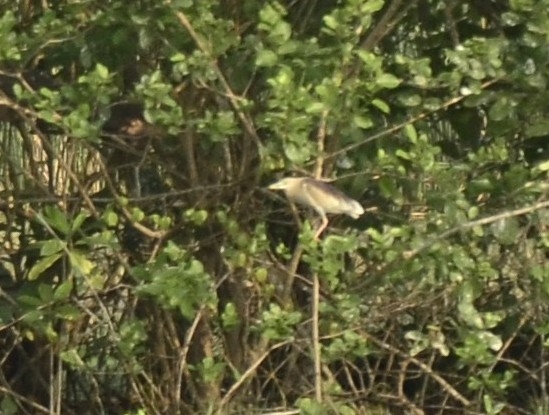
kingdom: Animalia
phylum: Chordata
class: Aves
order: Pelecaniformes
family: Ardeidae
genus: Ardeola
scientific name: Ardeola grayii
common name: Indian pond heron
